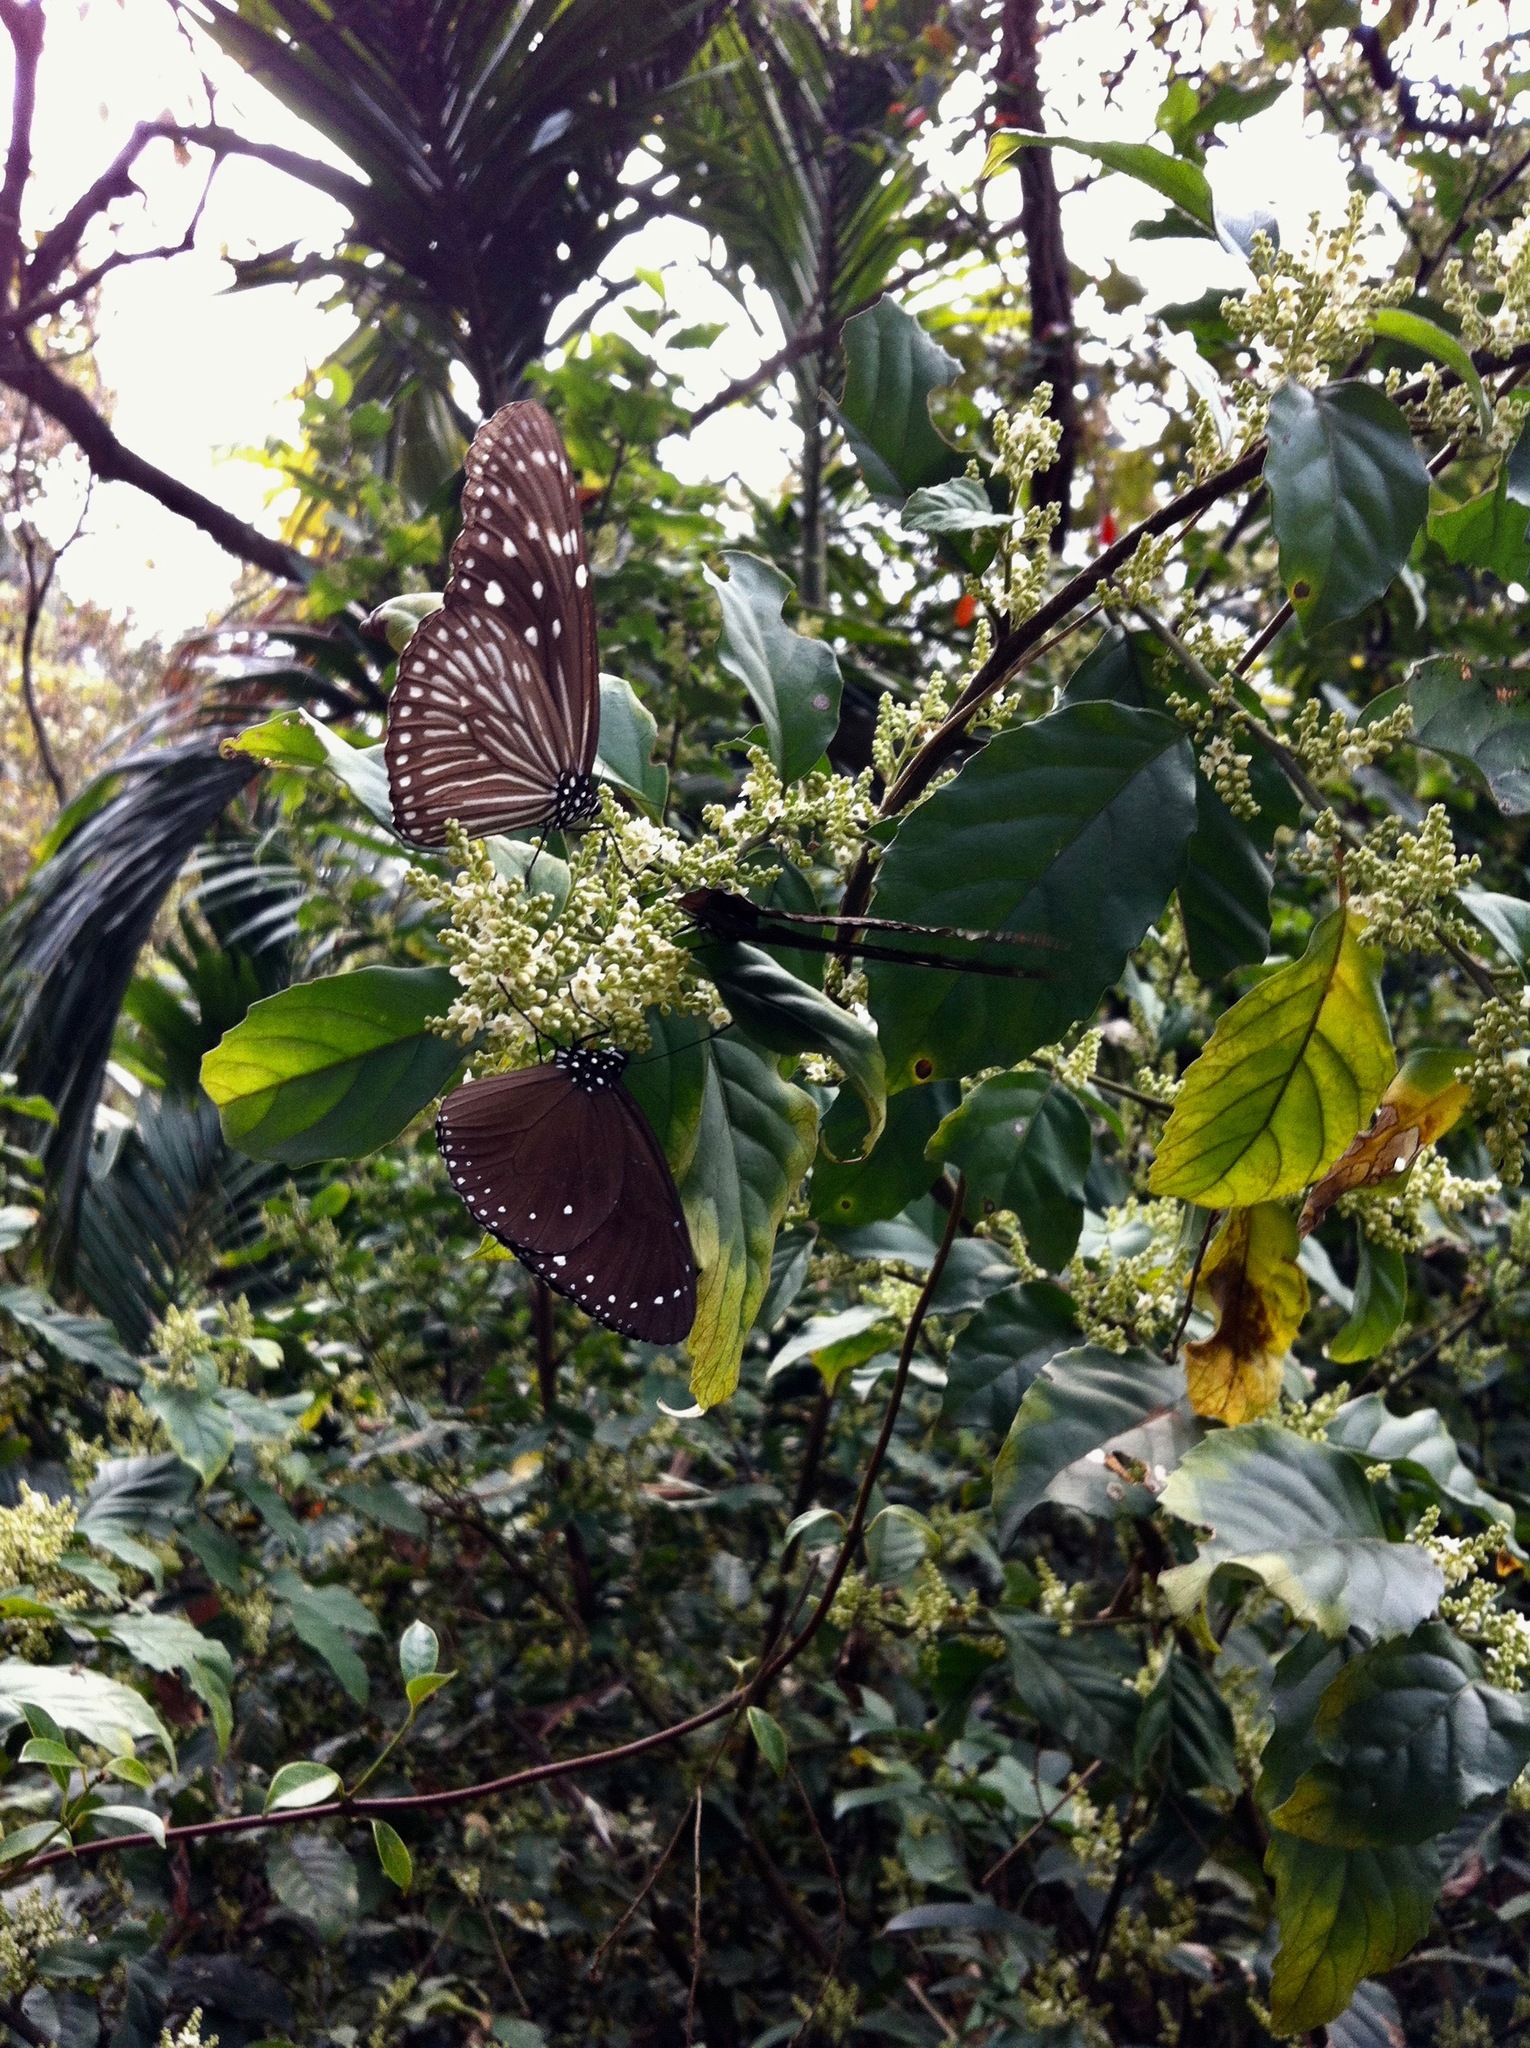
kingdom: Animalia
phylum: Arthropoda
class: Insecta
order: Lepidoptera
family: Nymphalidae
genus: Euploea
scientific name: Euploea mulciber
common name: Striped blue crow butterfly
